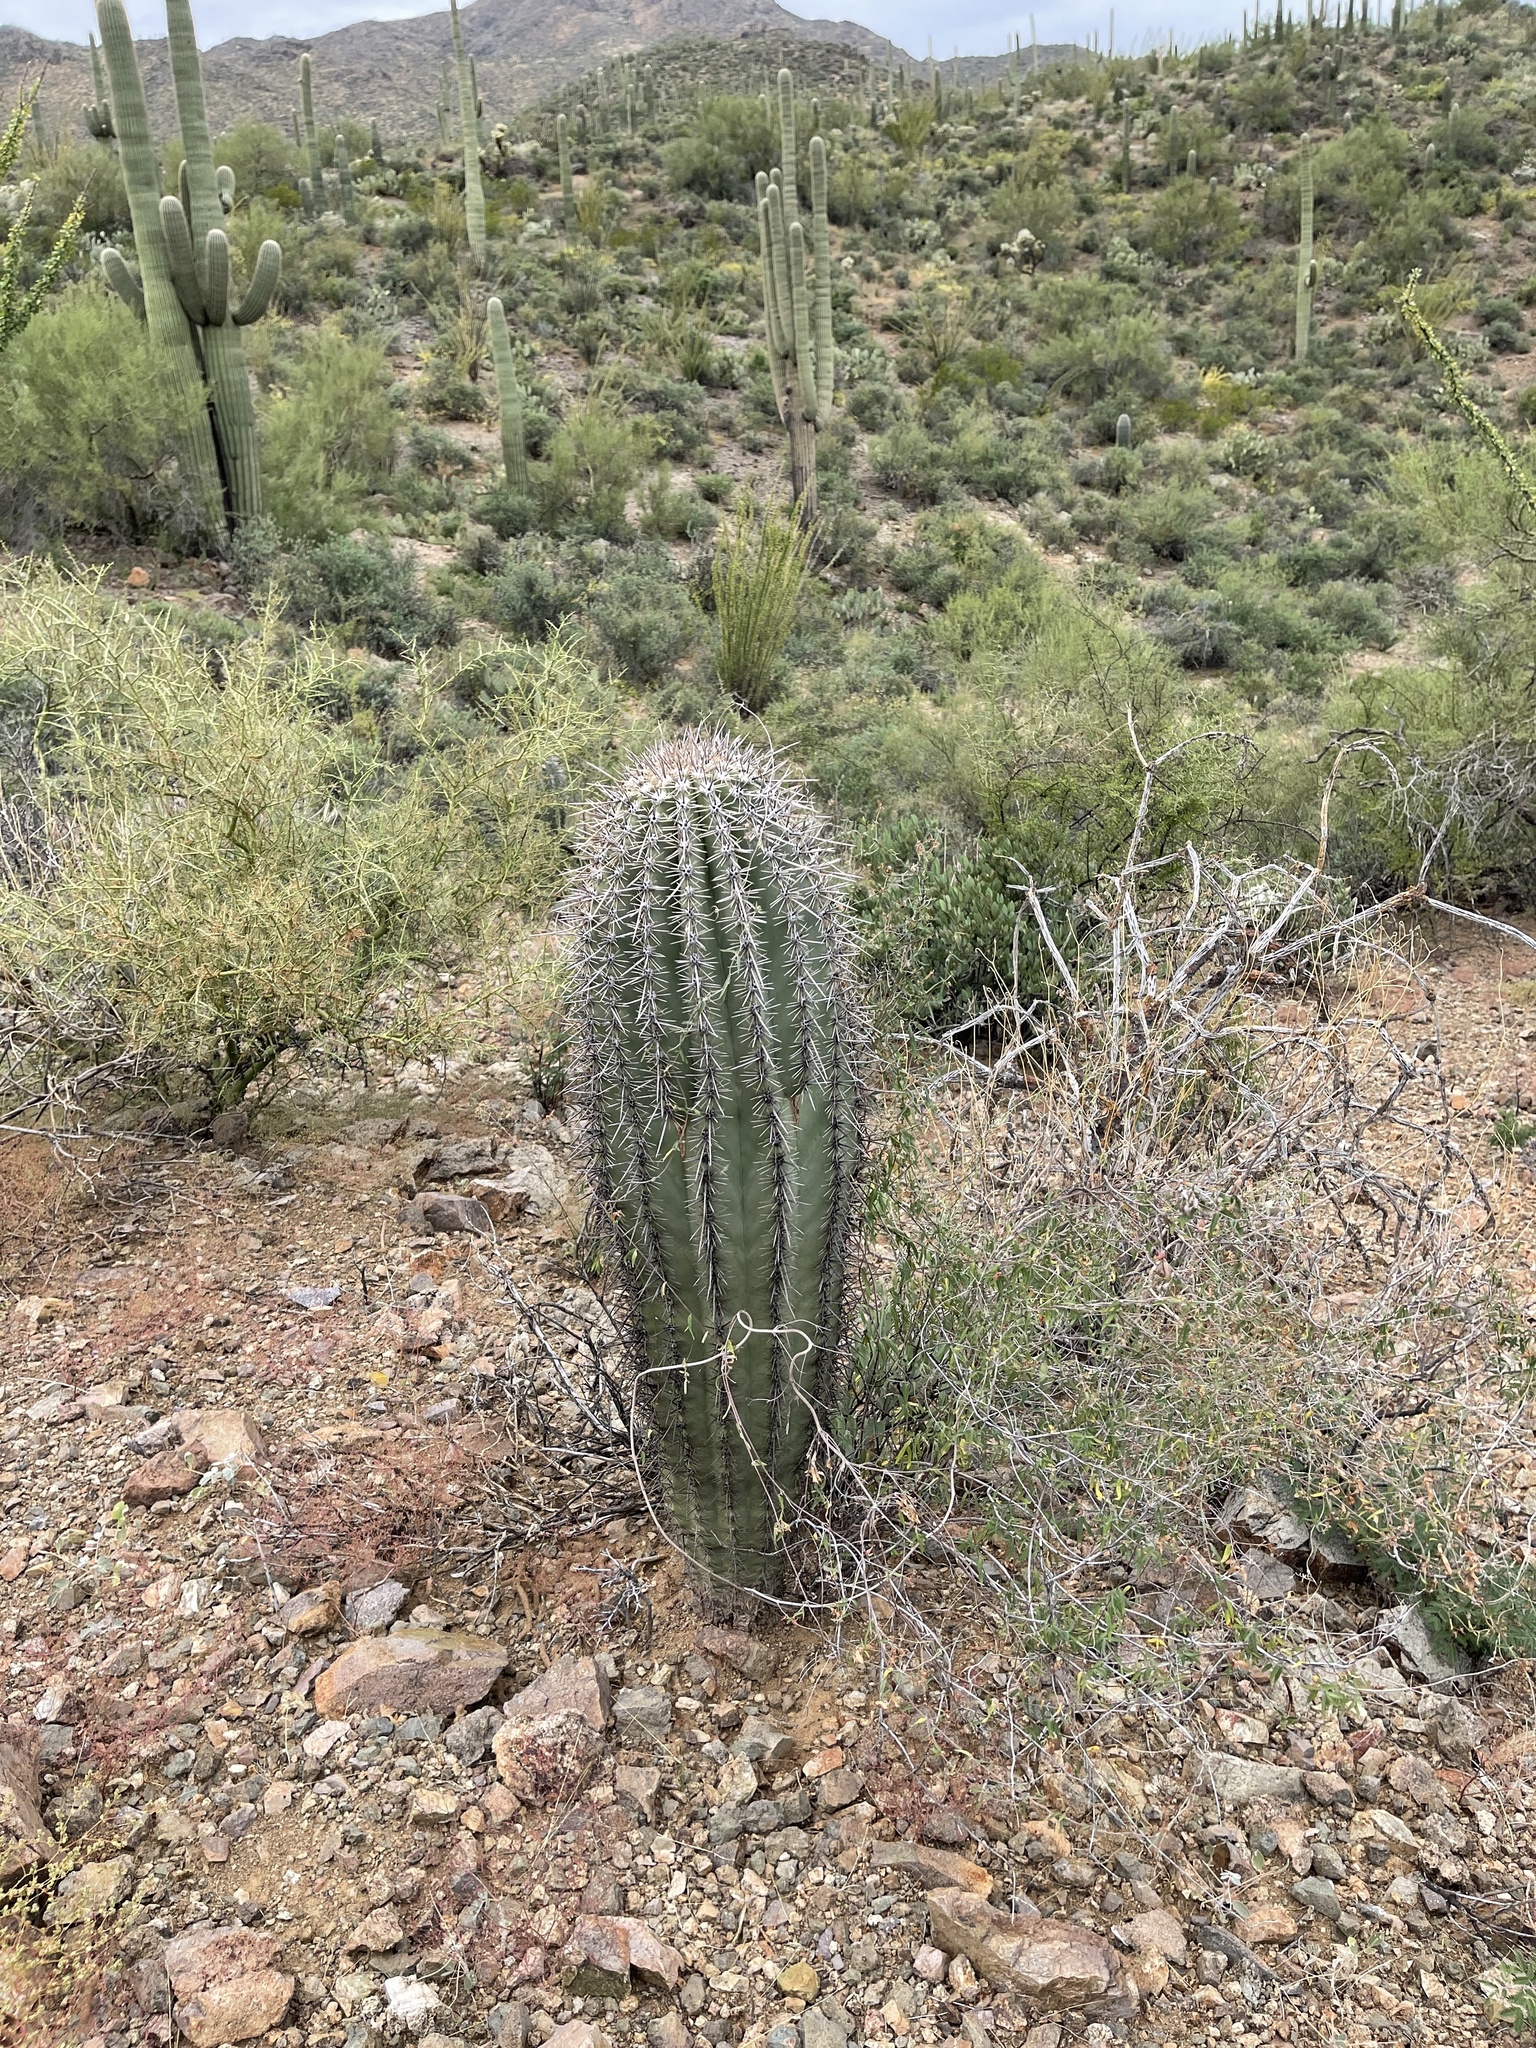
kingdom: Plantae
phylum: Tracheophyta
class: Magnoliopsida
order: Caryophyllales
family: Cactaceae
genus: Carnegiea
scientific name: Carnegiea gigantea
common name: Saguaro
